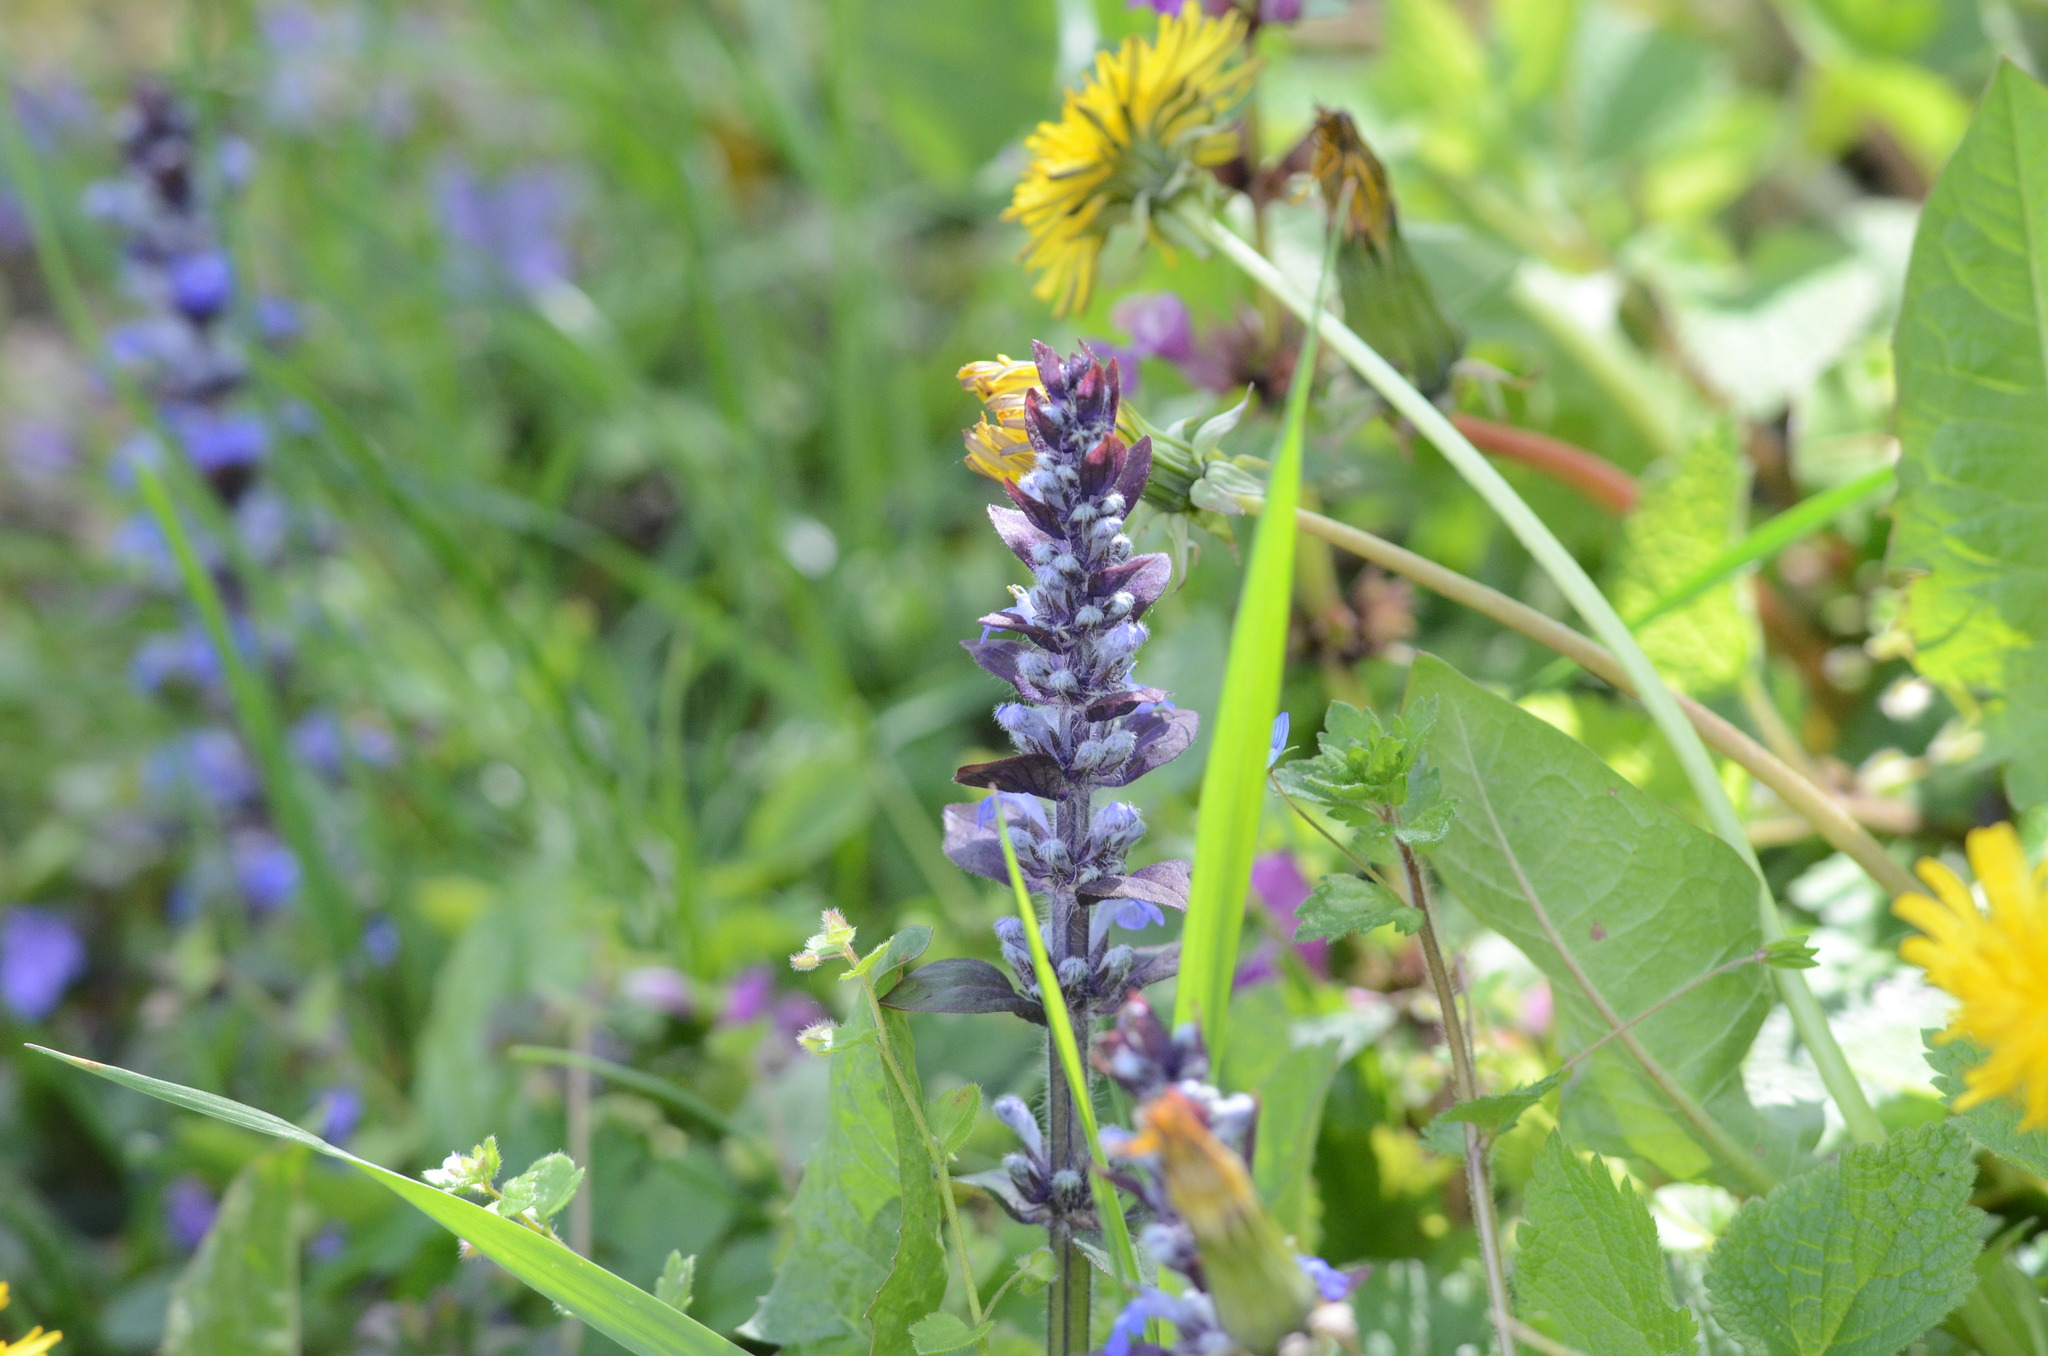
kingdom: Plantae
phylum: Tracheophyta
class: Magnoliopsida
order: Lamiales
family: Lamiaceae
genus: Ajuga
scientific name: Ajuga reptans
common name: Bugle
